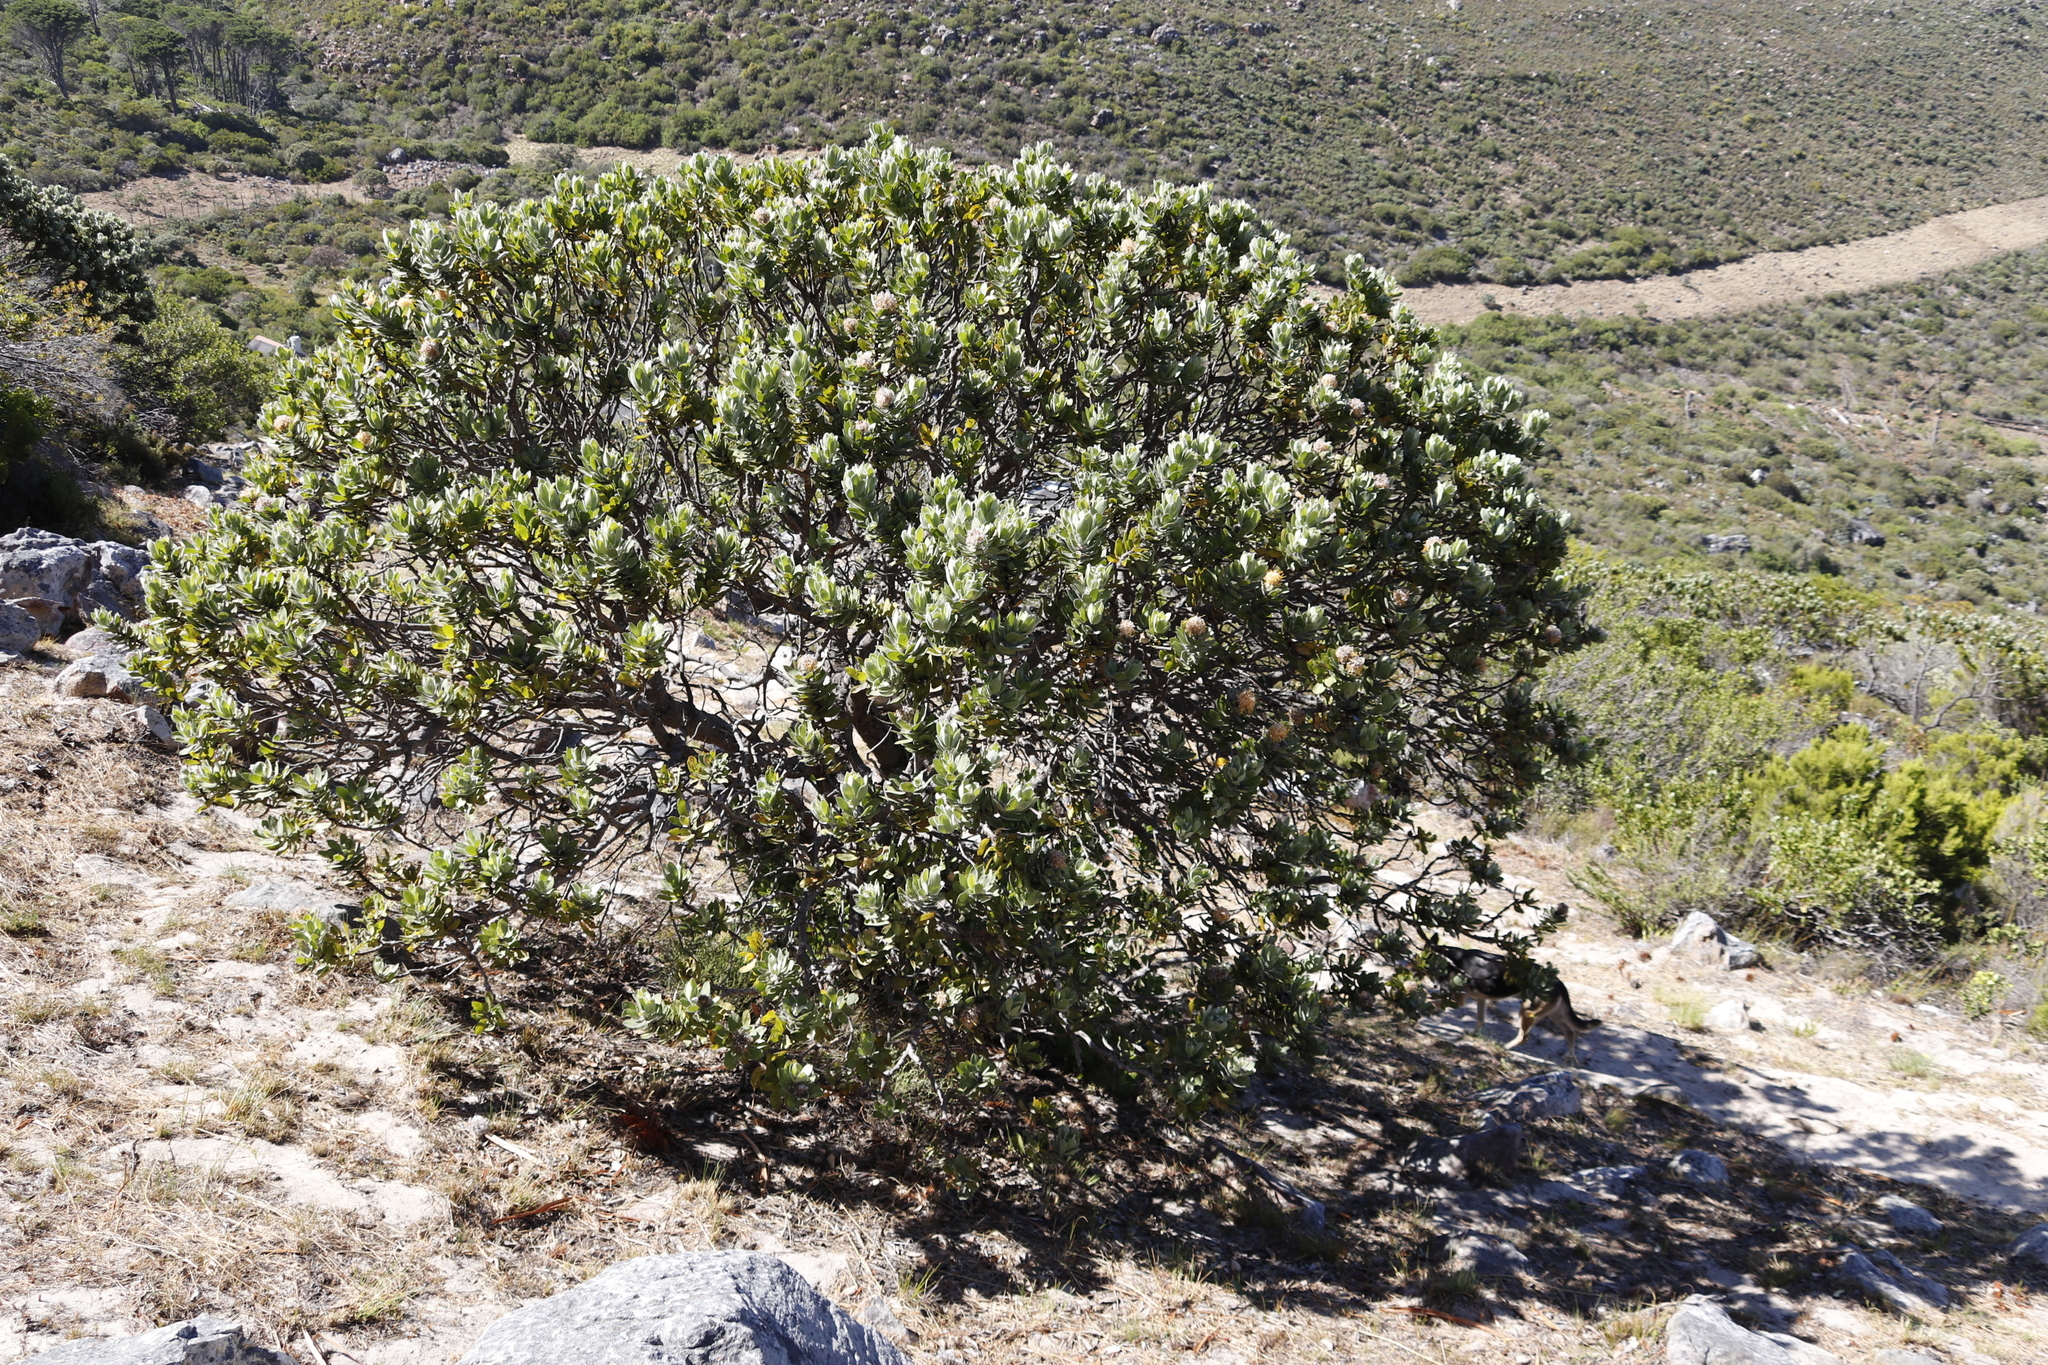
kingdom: Plantae
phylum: Tracheophyta
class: Magnoliopsida
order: Proteales
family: Proteaceae
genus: Leucospermum
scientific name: Leucospermum conocarpodendron
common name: Tree pincushion
